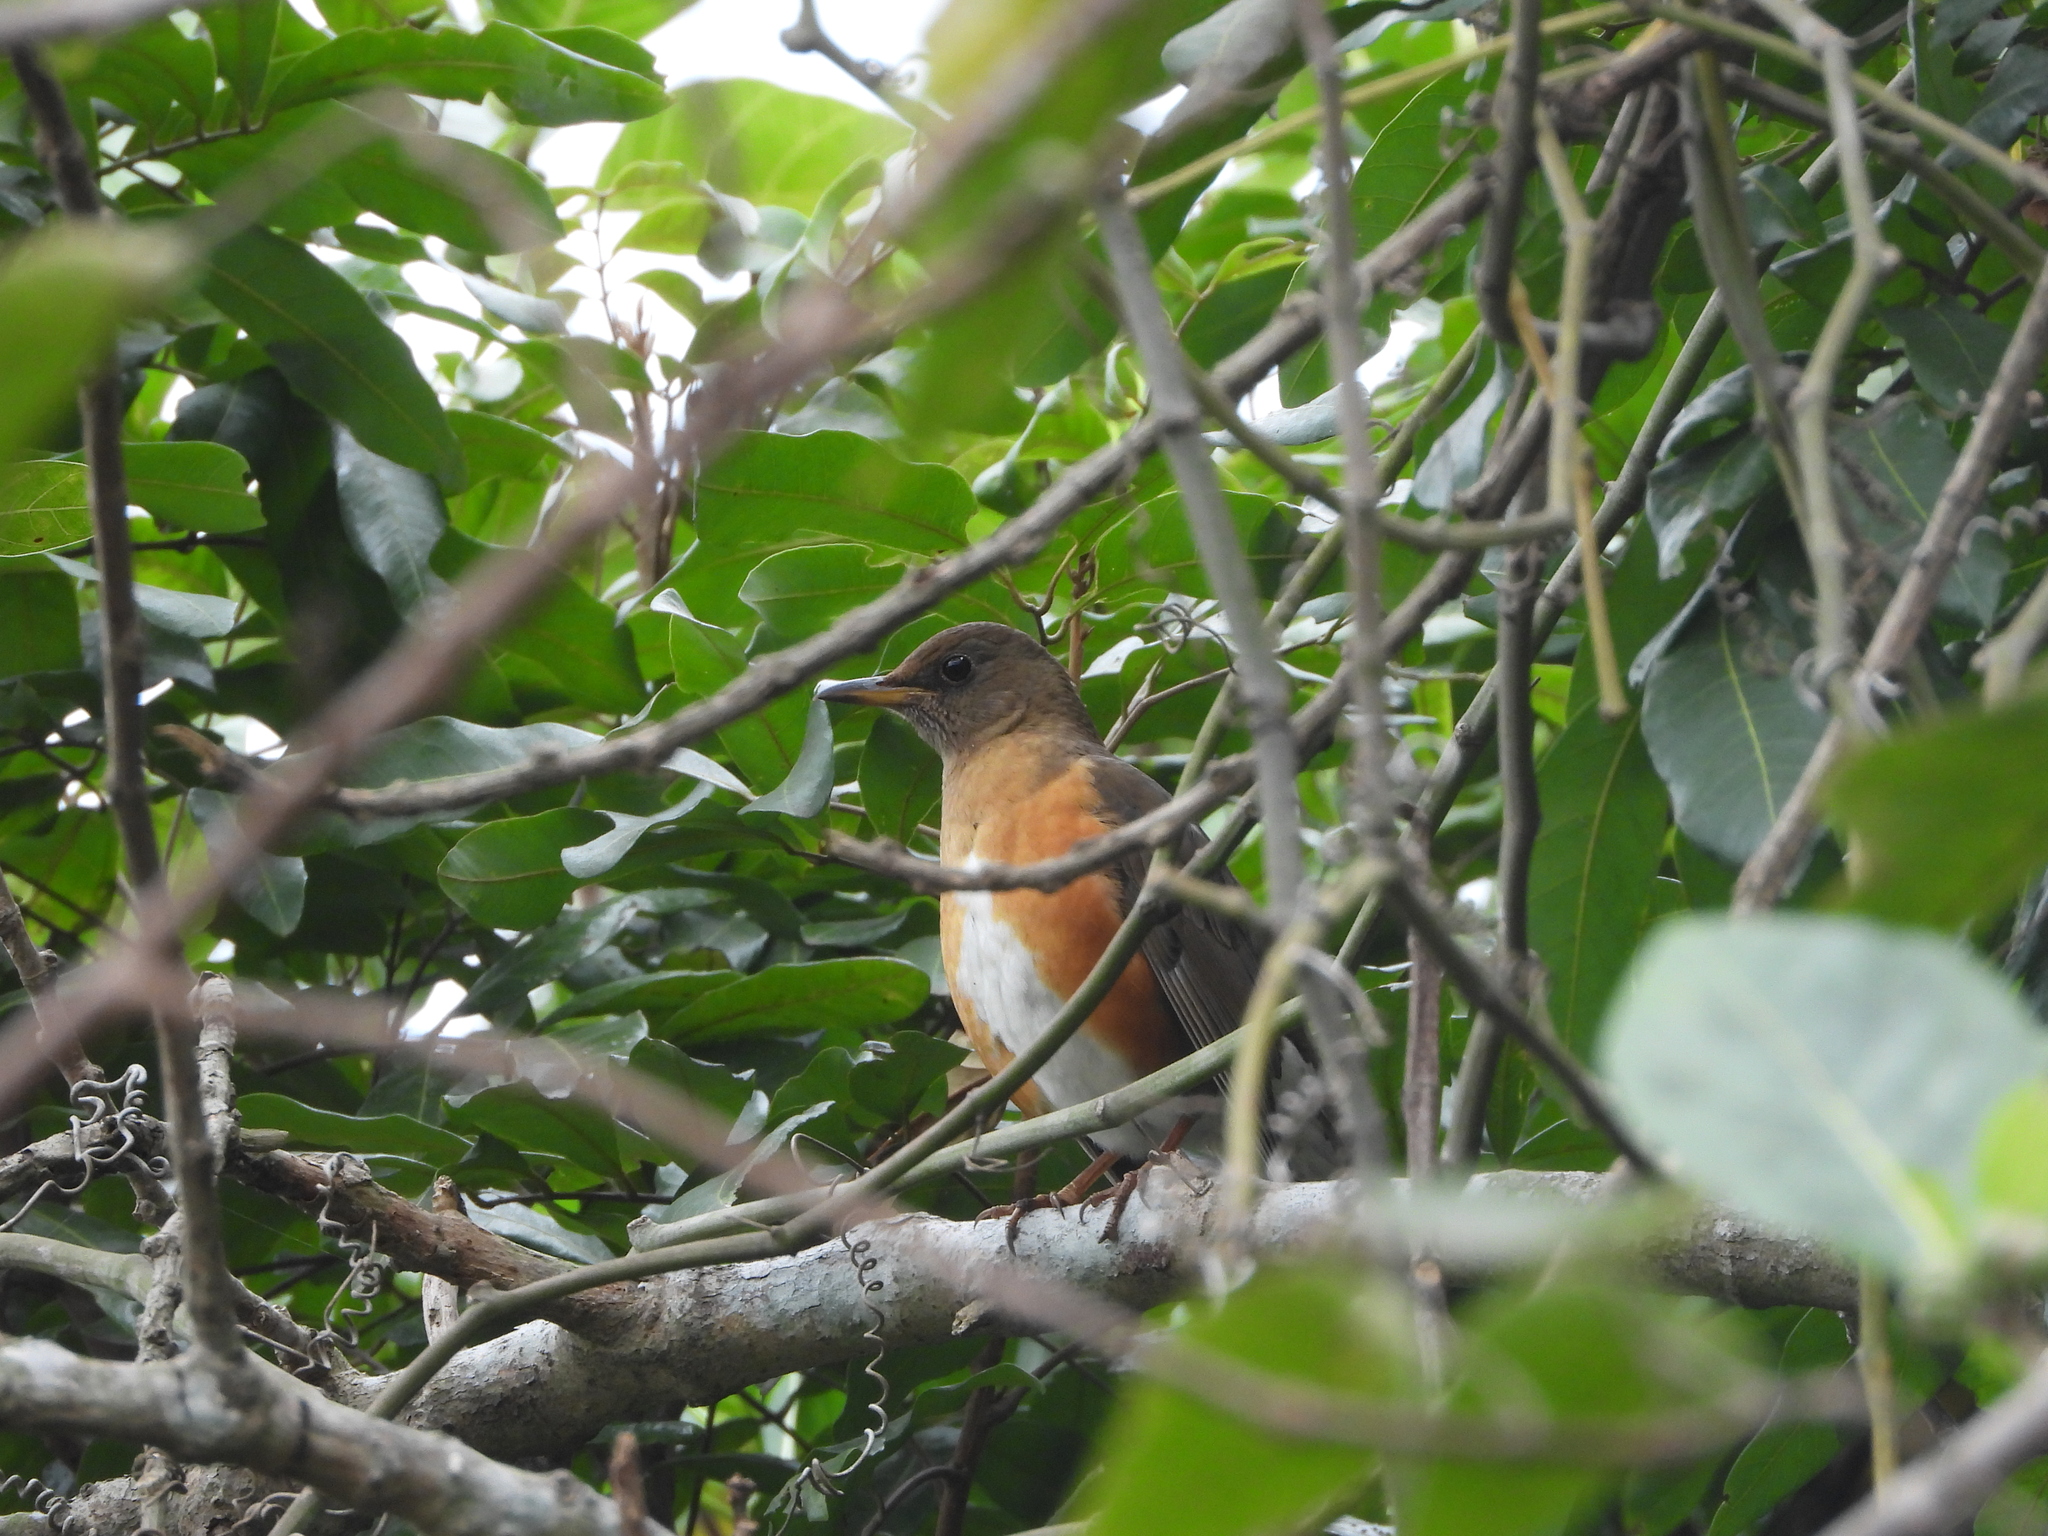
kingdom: Animalia
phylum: Chordata
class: Aves
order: Passeriformes
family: Turdidae
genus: Turdus
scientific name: Turdus chrysolaus
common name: Brown-headed thrush
